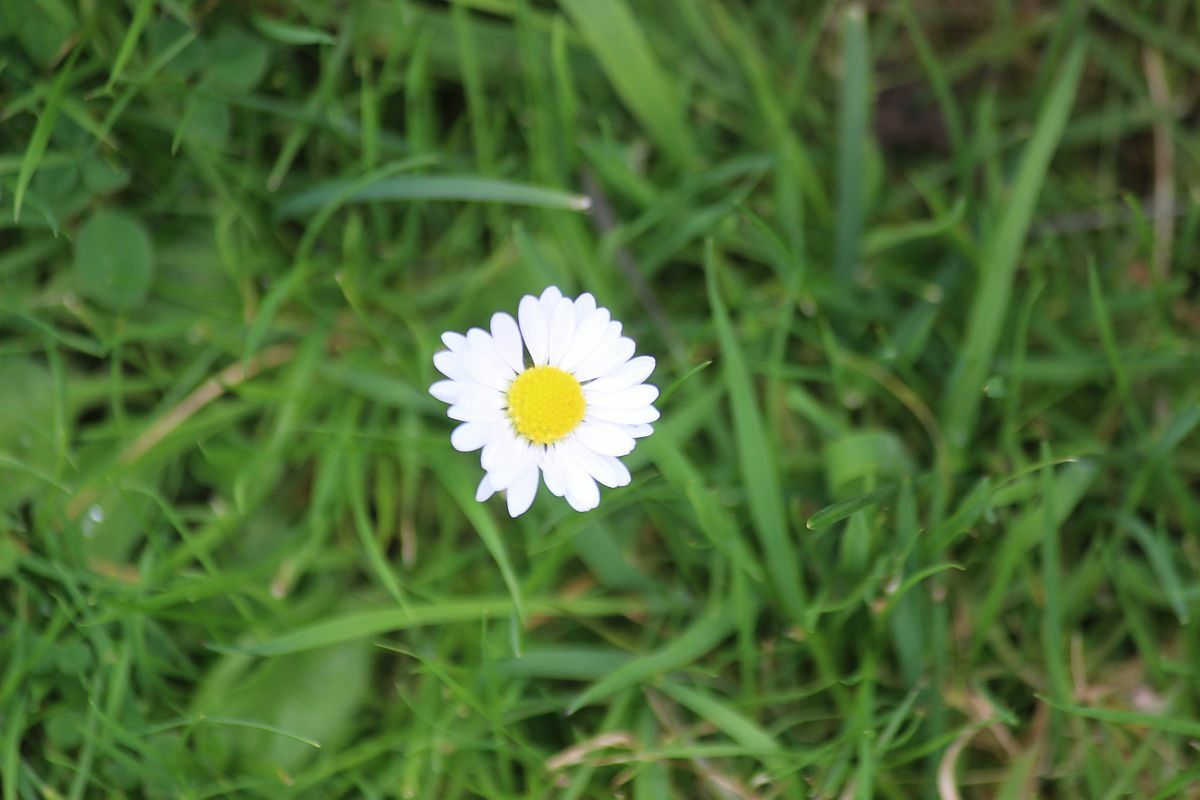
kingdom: Plantae
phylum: Tracheophyta
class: Magnoliopsida
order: Asterales
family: Asteraceae
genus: Bellis
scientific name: Bellis perennis
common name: Lawndaisy
